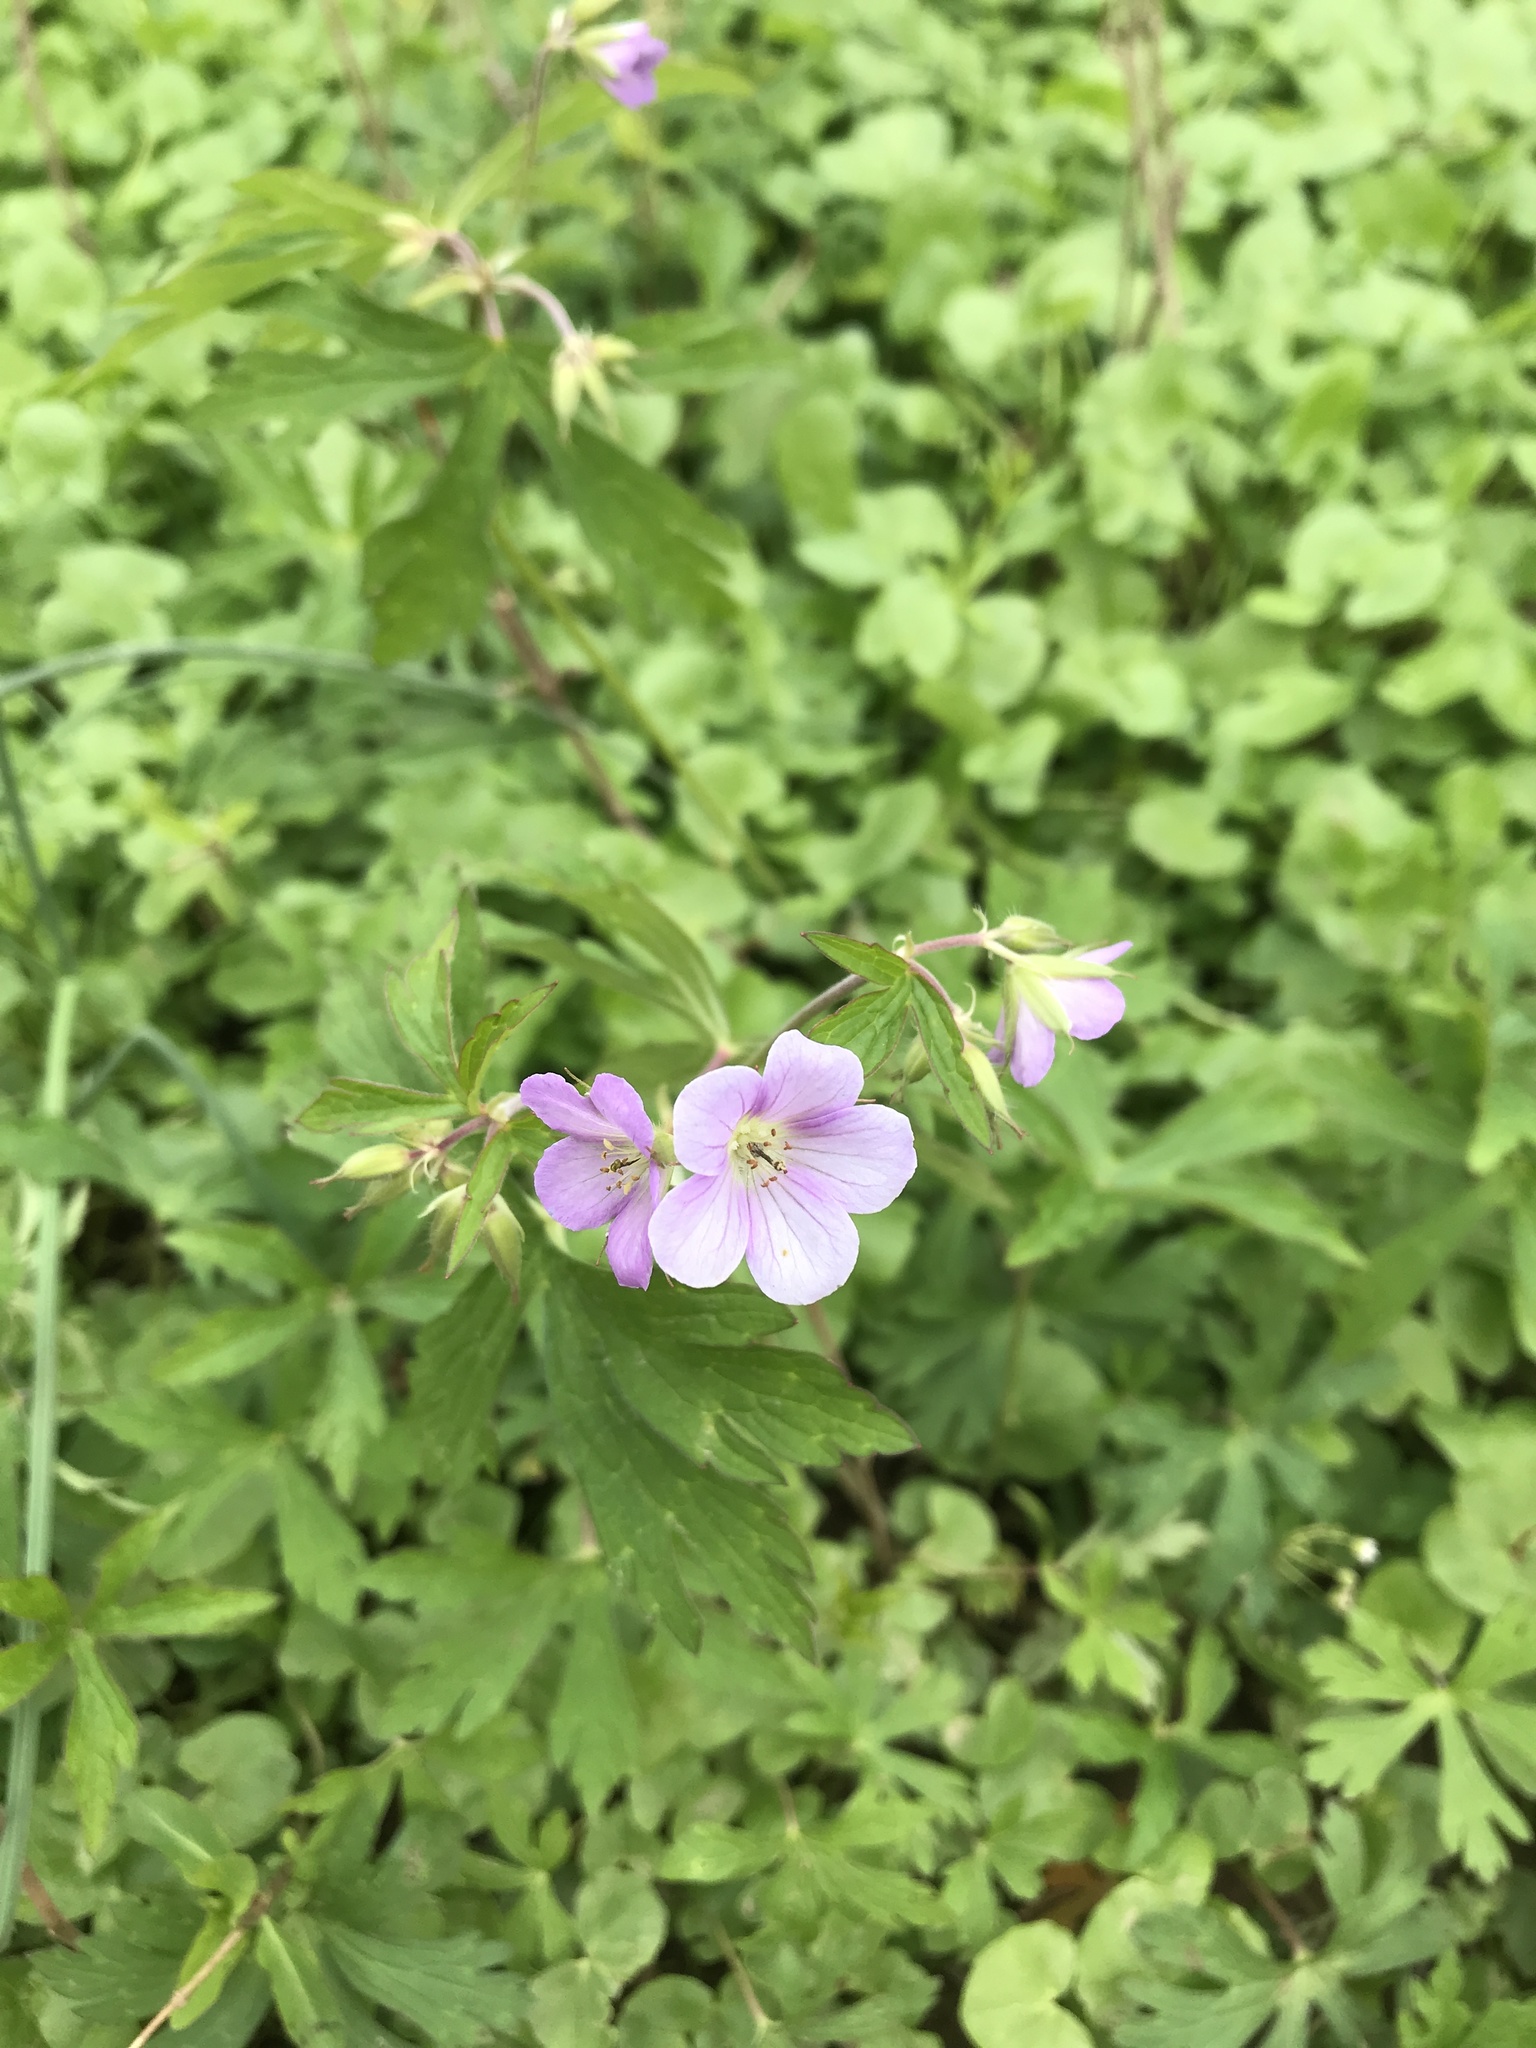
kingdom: Plantae
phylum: Tracheophyta
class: Magnoliopsida
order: Geraniales
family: Geraniaceae
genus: Geranium
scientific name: Geranium maculatum
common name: Spotted geranium
